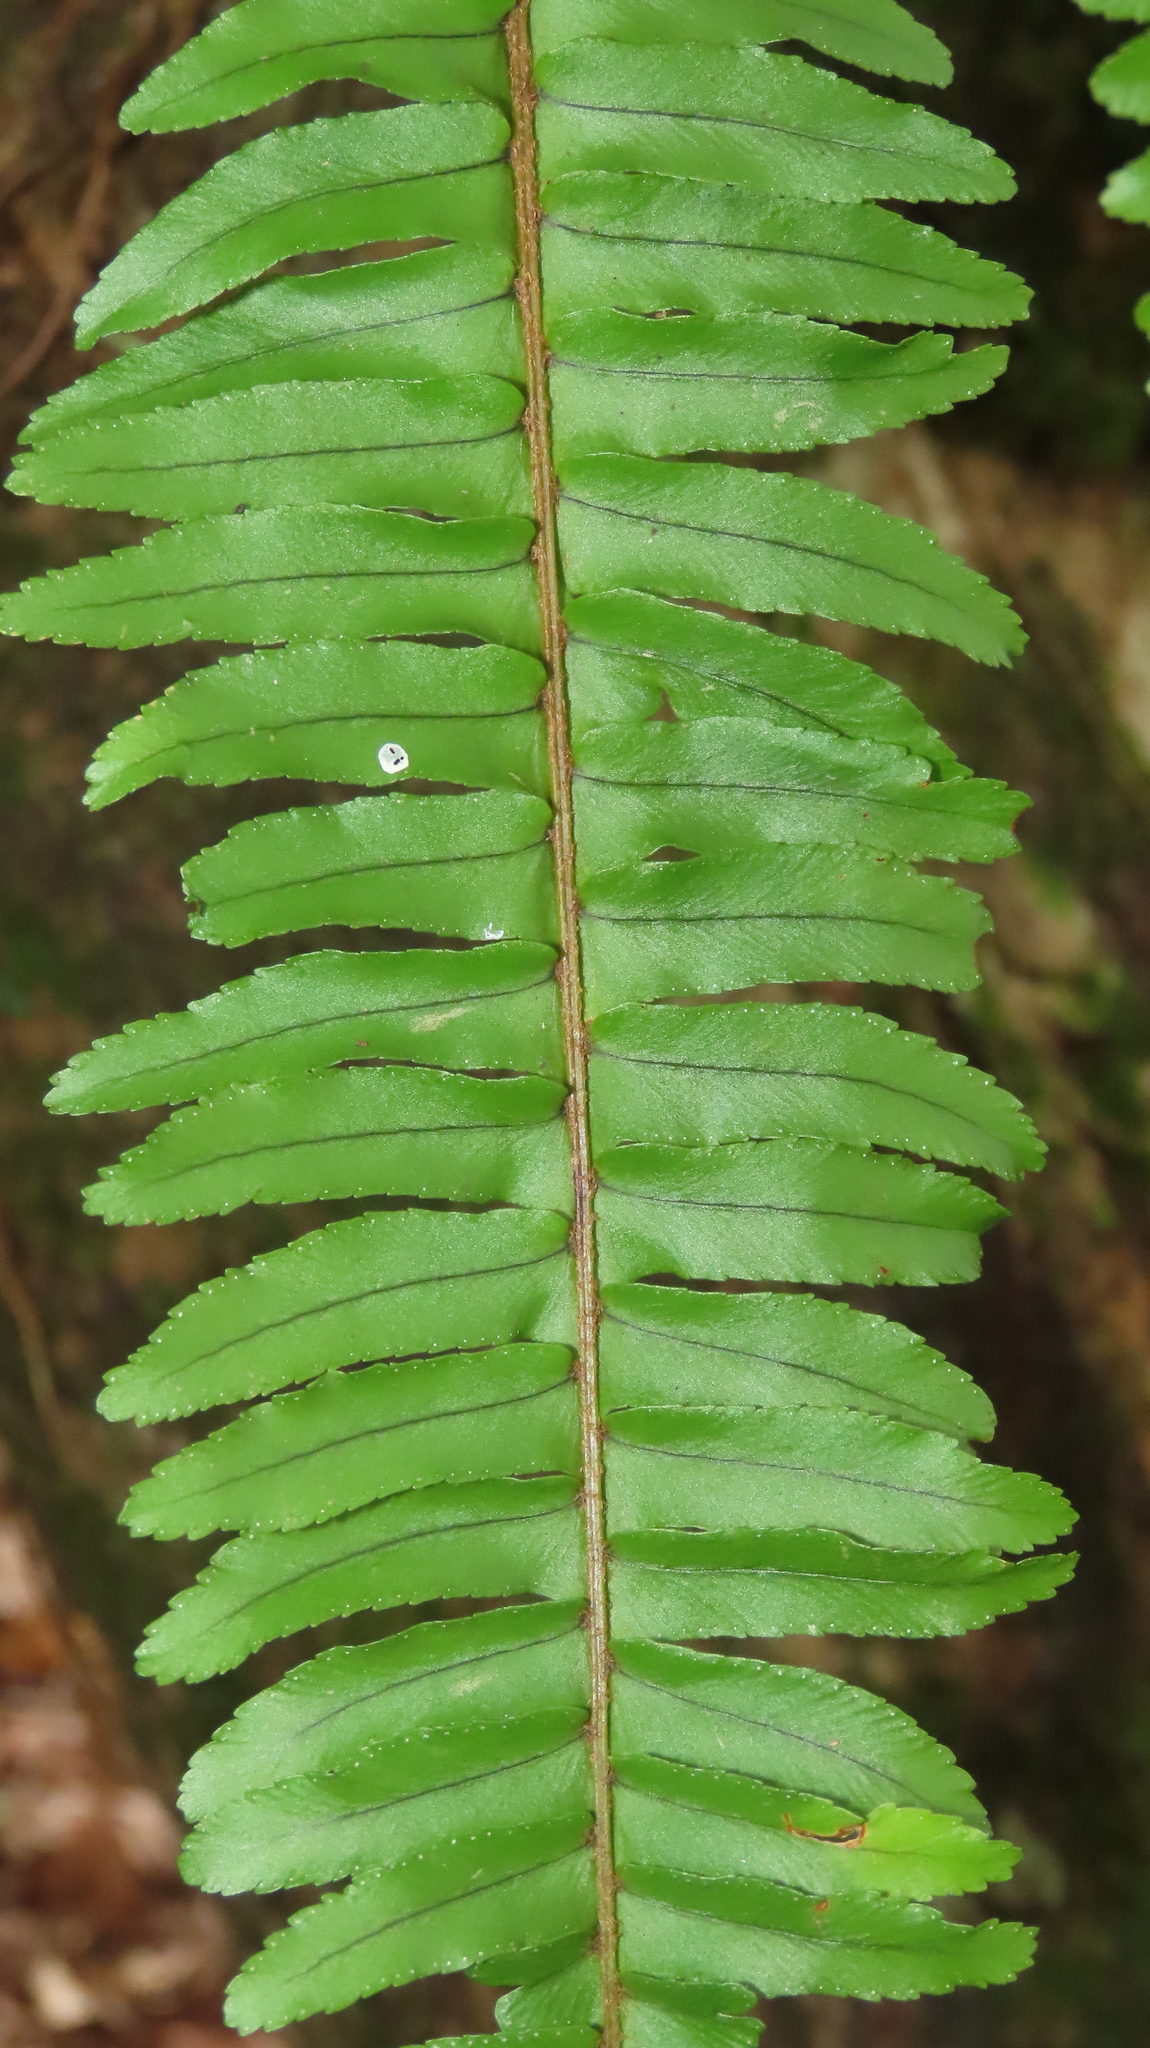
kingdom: Plantae
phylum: Tracheophyta
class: Polypodiopsida
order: Polypodiales
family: Nephrolepidaceae
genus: Nephrolepis
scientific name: Nephrolepis cordifolia
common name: Narrow swordfern
